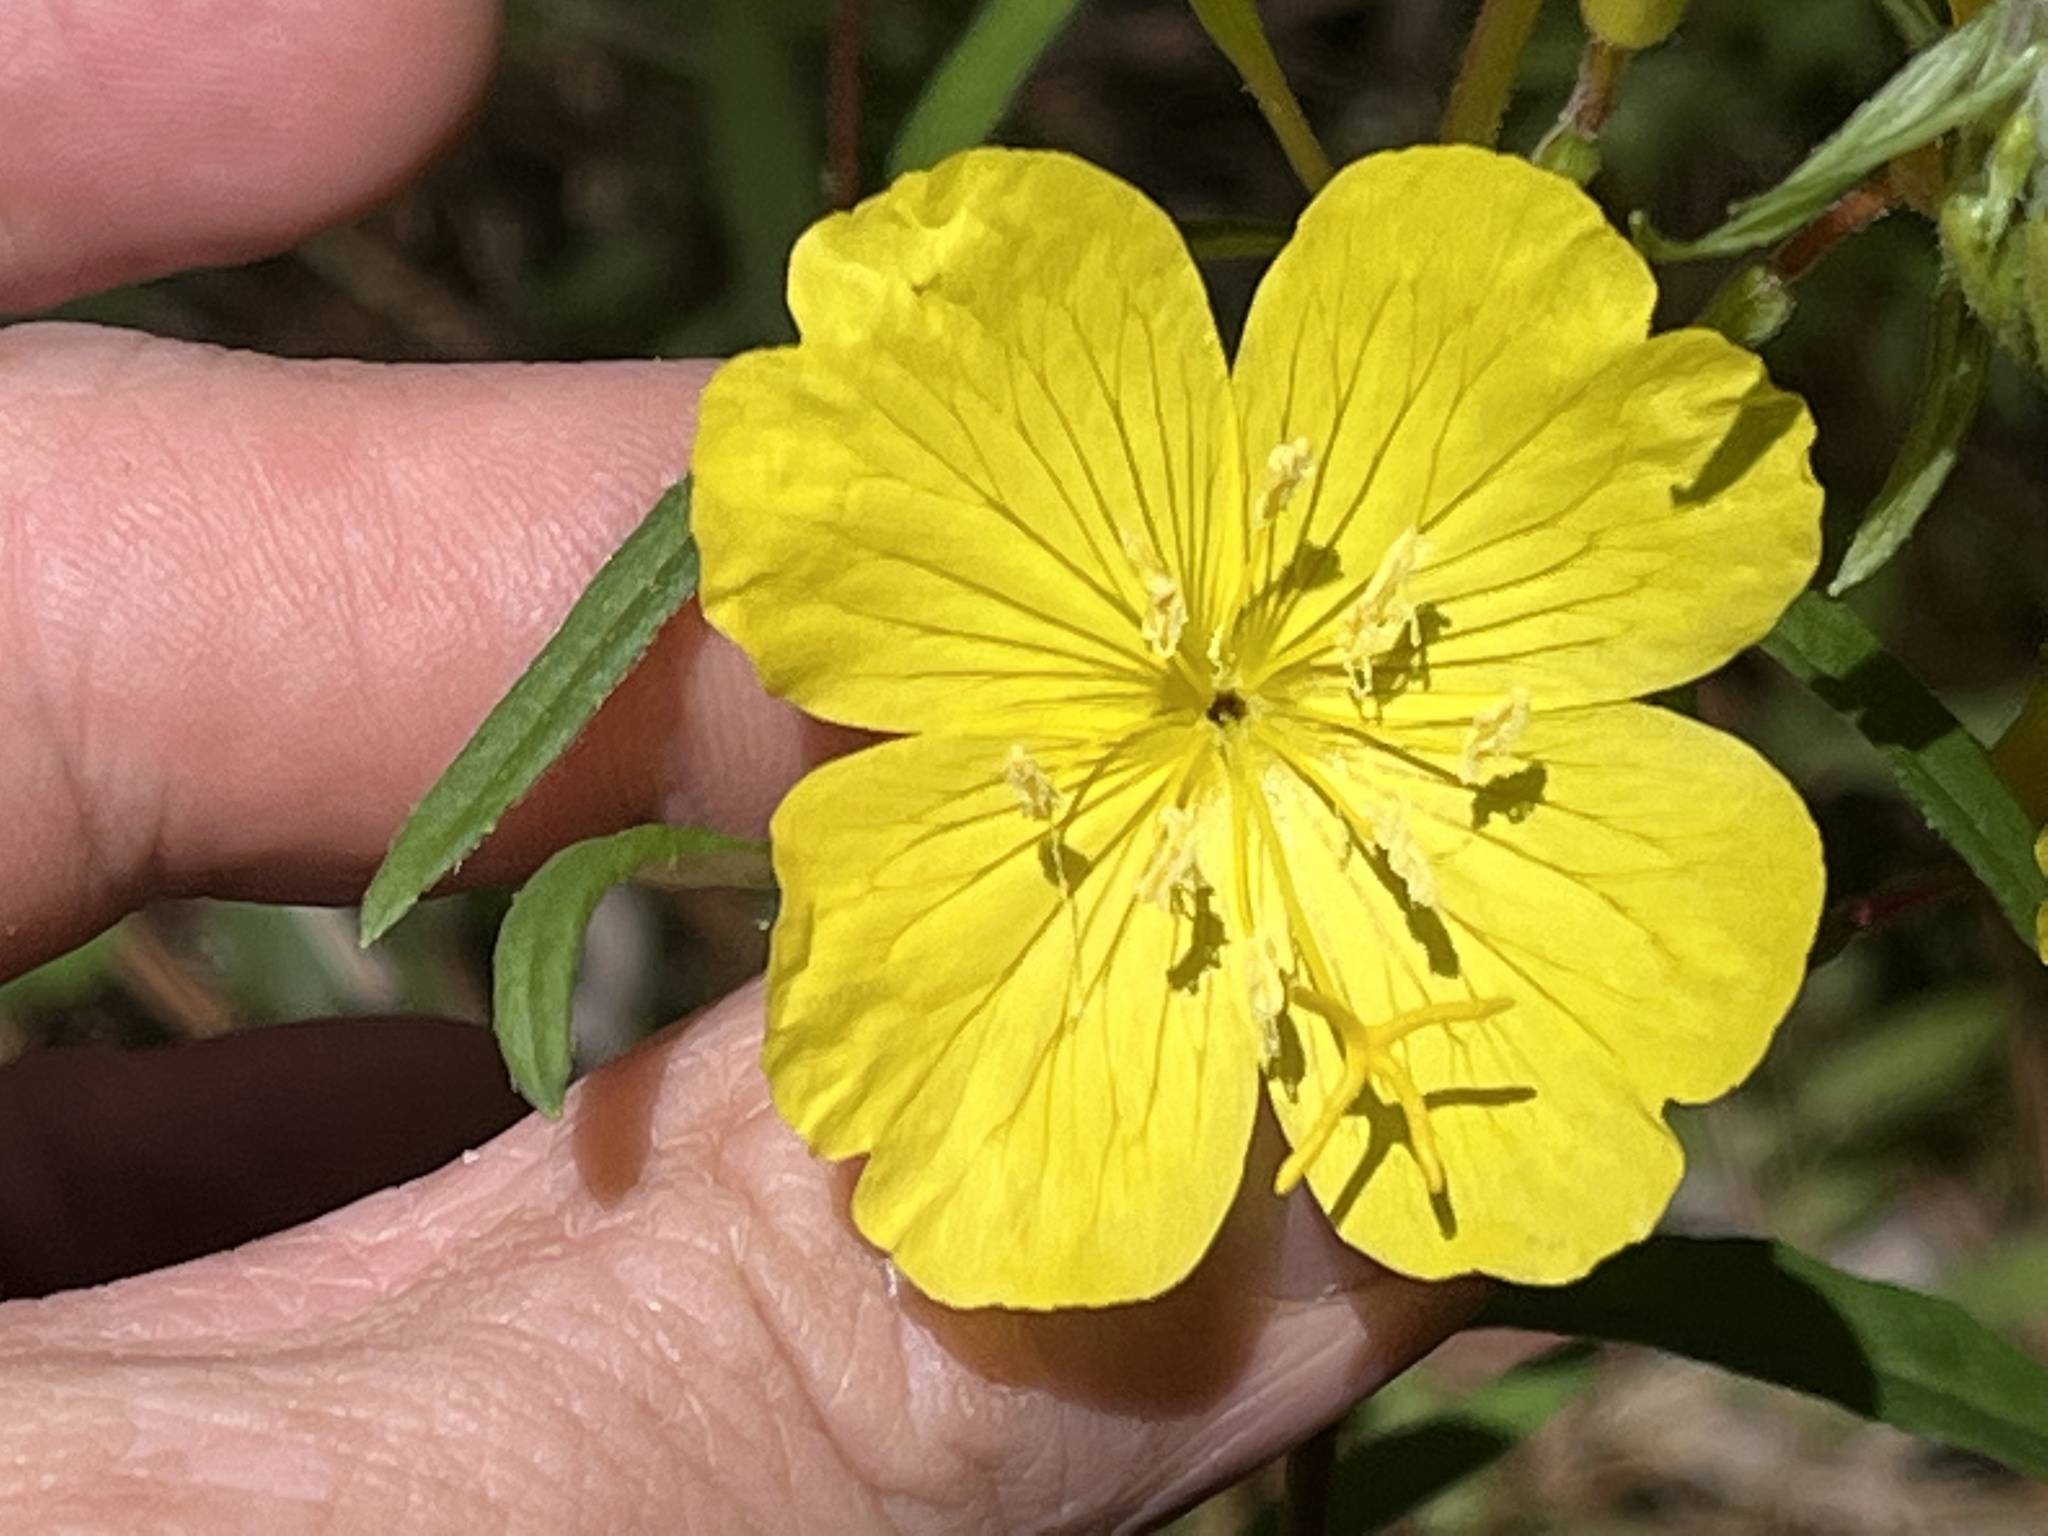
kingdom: Plantae
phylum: Tracheophyta
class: Magnoliopsida
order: Myrtales
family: Onagraceae
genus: Oenothera
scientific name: Oenothera fruticosa
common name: Southern sundrops
